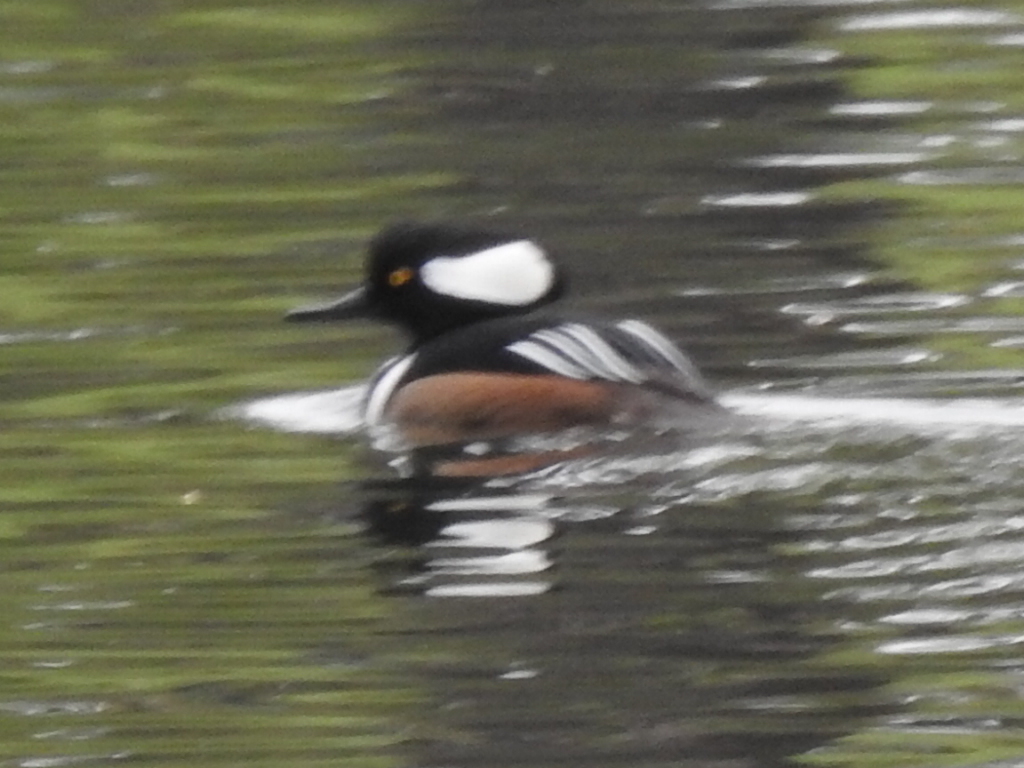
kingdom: Animalia
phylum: Chordata
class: Aves
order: Anseriformes
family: Anatidae
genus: Lophodytes
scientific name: Lophodytes cucullatus
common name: Hooded merganser
